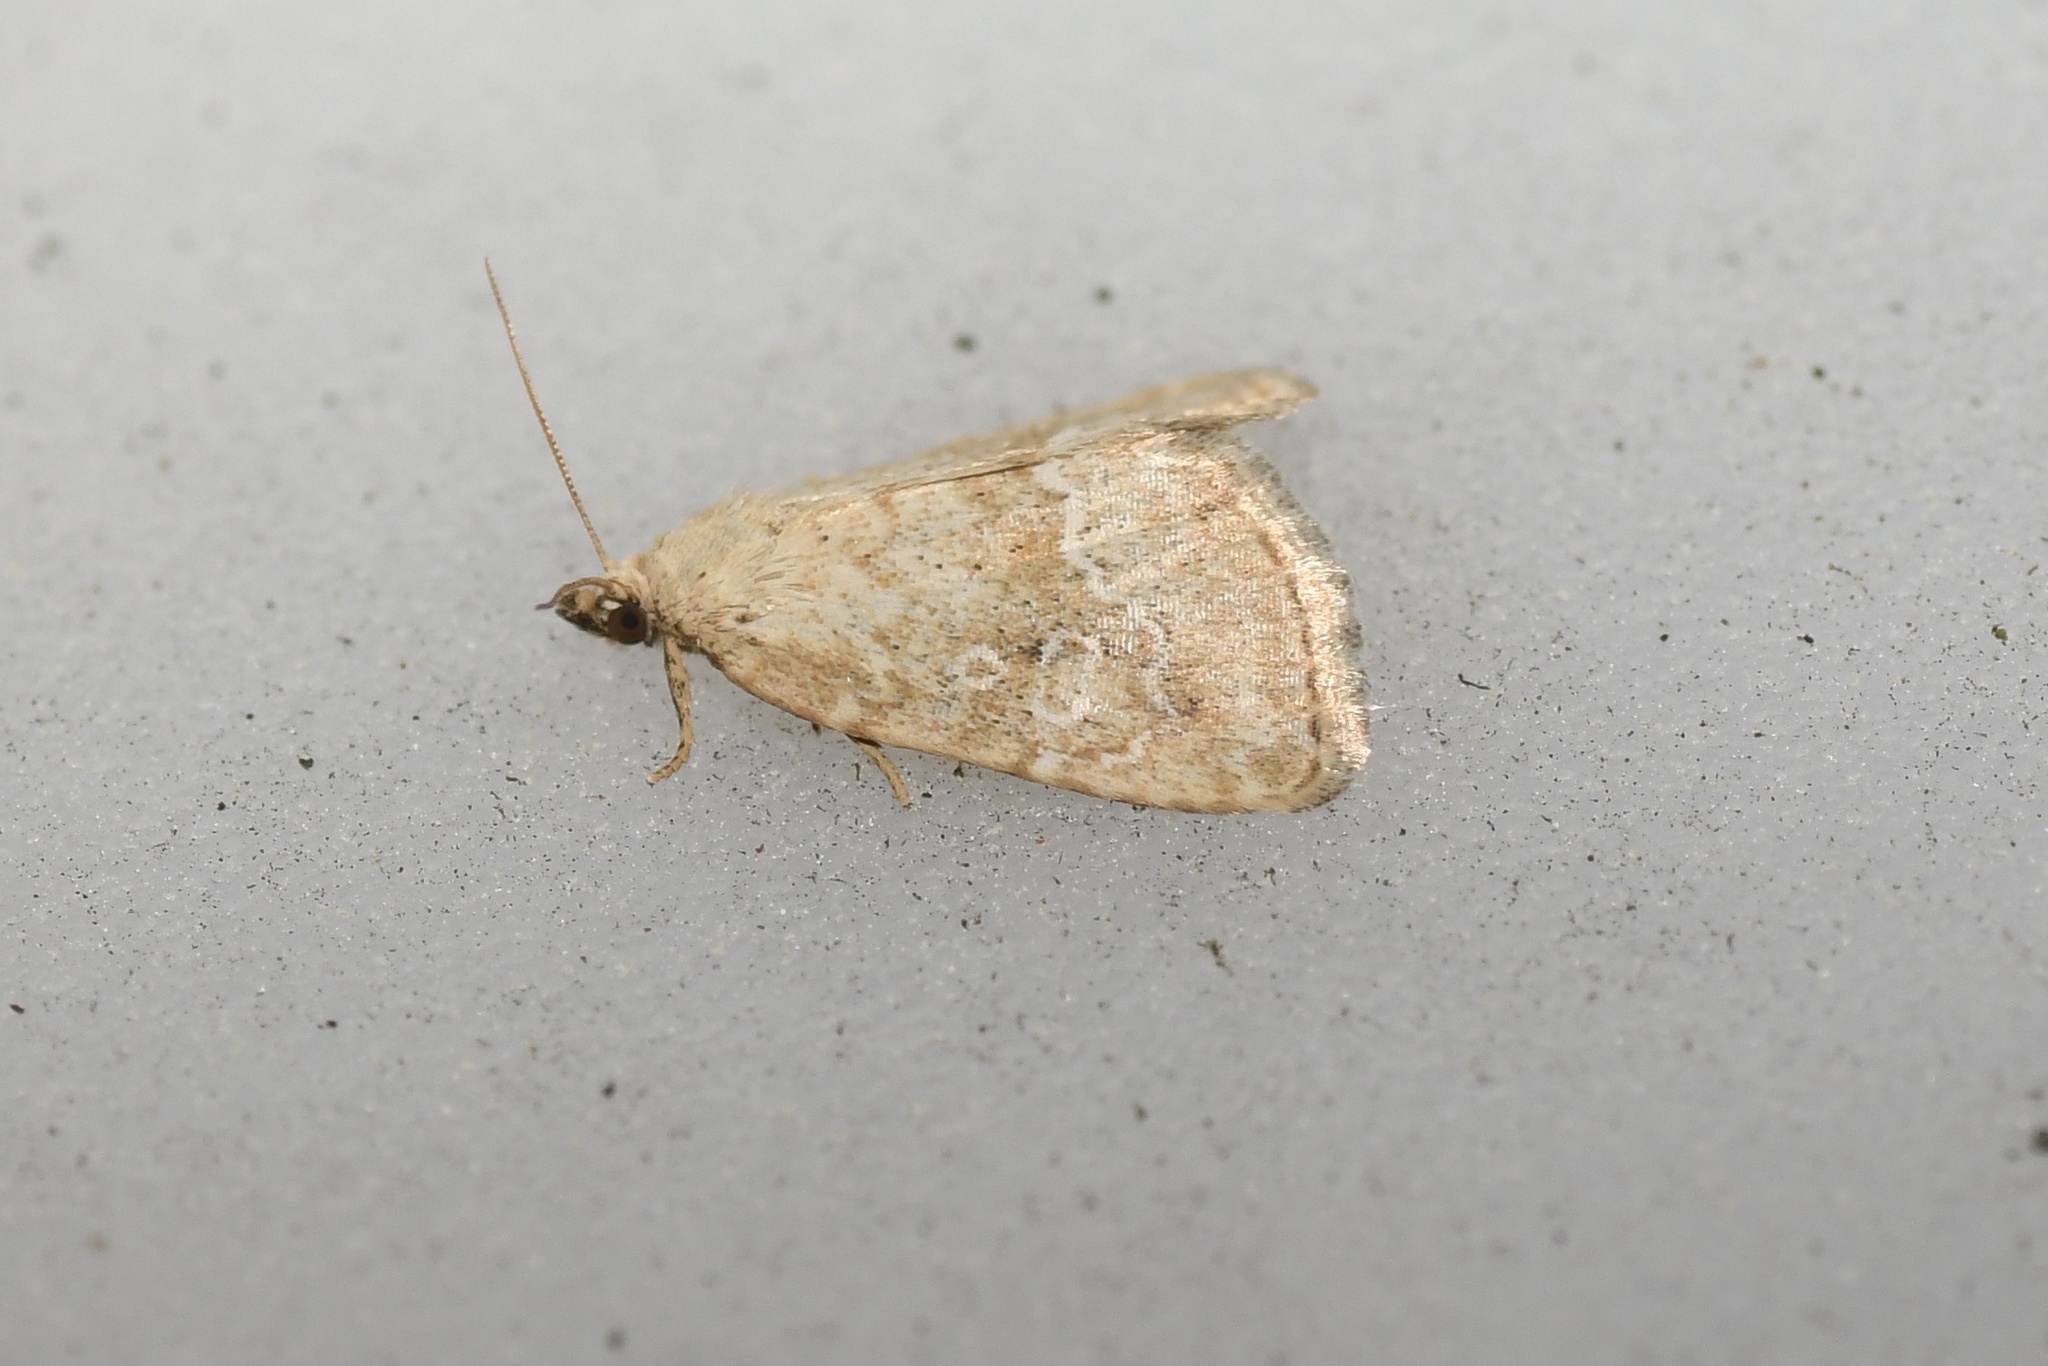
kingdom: Animalia
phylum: Arthropoda
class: Insecta
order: Lepidoptera
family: Noctuidae
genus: Protodeltote
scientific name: Protodeltote albidula
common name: Pale glyph
